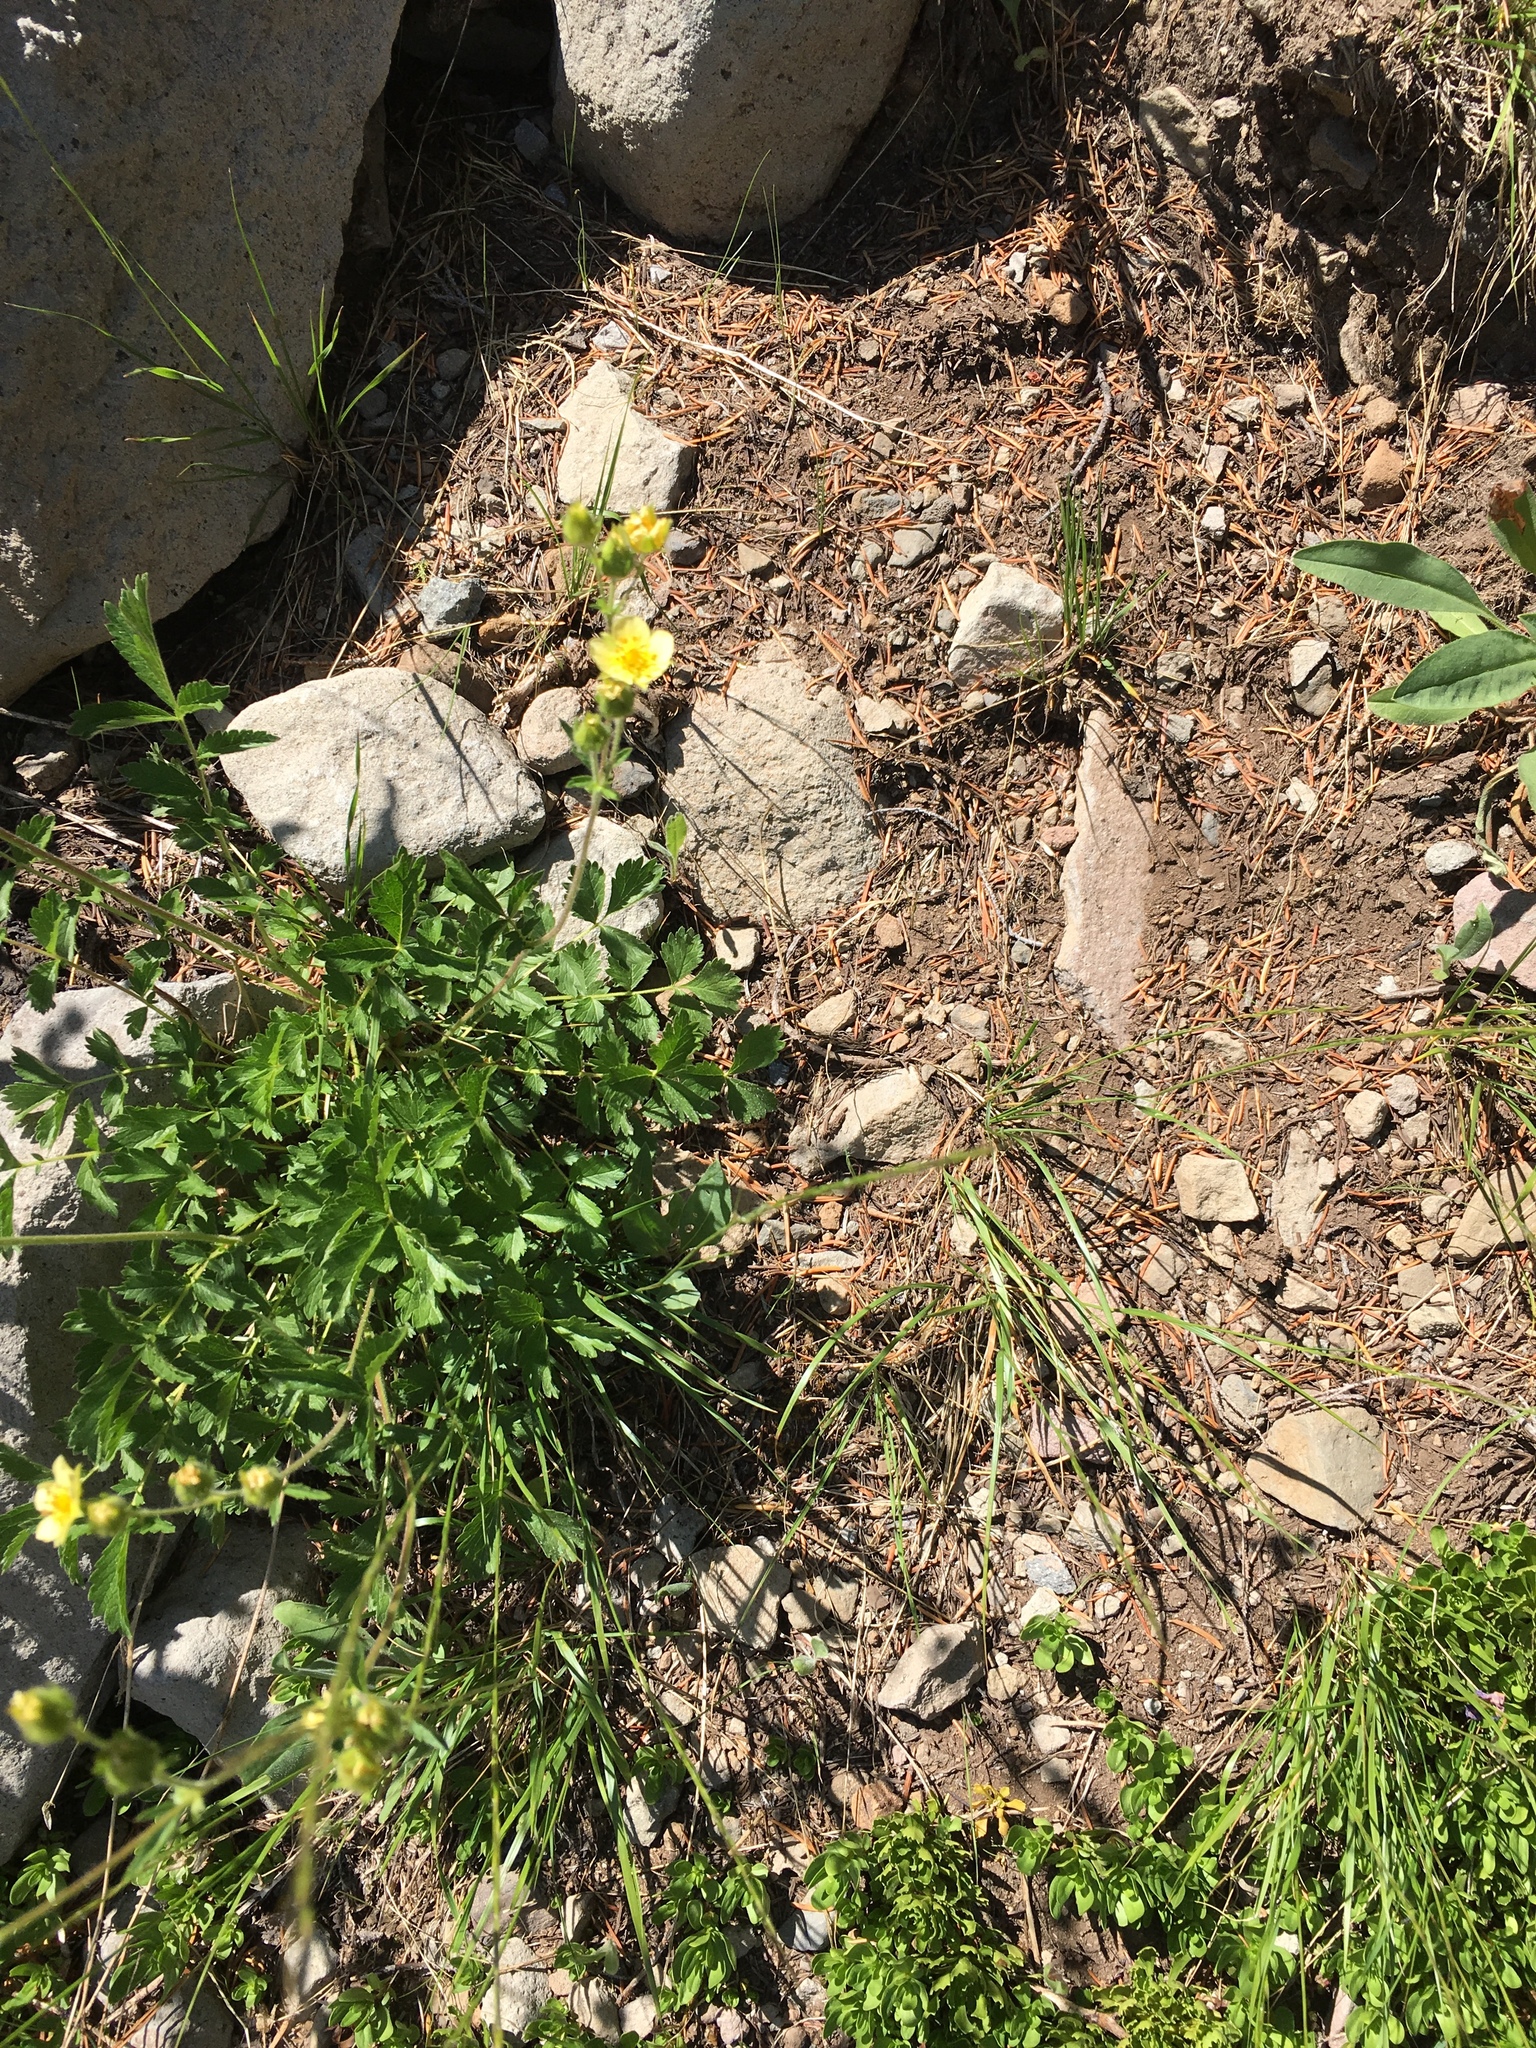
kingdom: Plantae
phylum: Tracheophyta
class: Magnoliopsida
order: Rosales
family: Rosaceae
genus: Drymocallis
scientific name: Drymocallis glandulosa
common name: Sticky cinquefoil
